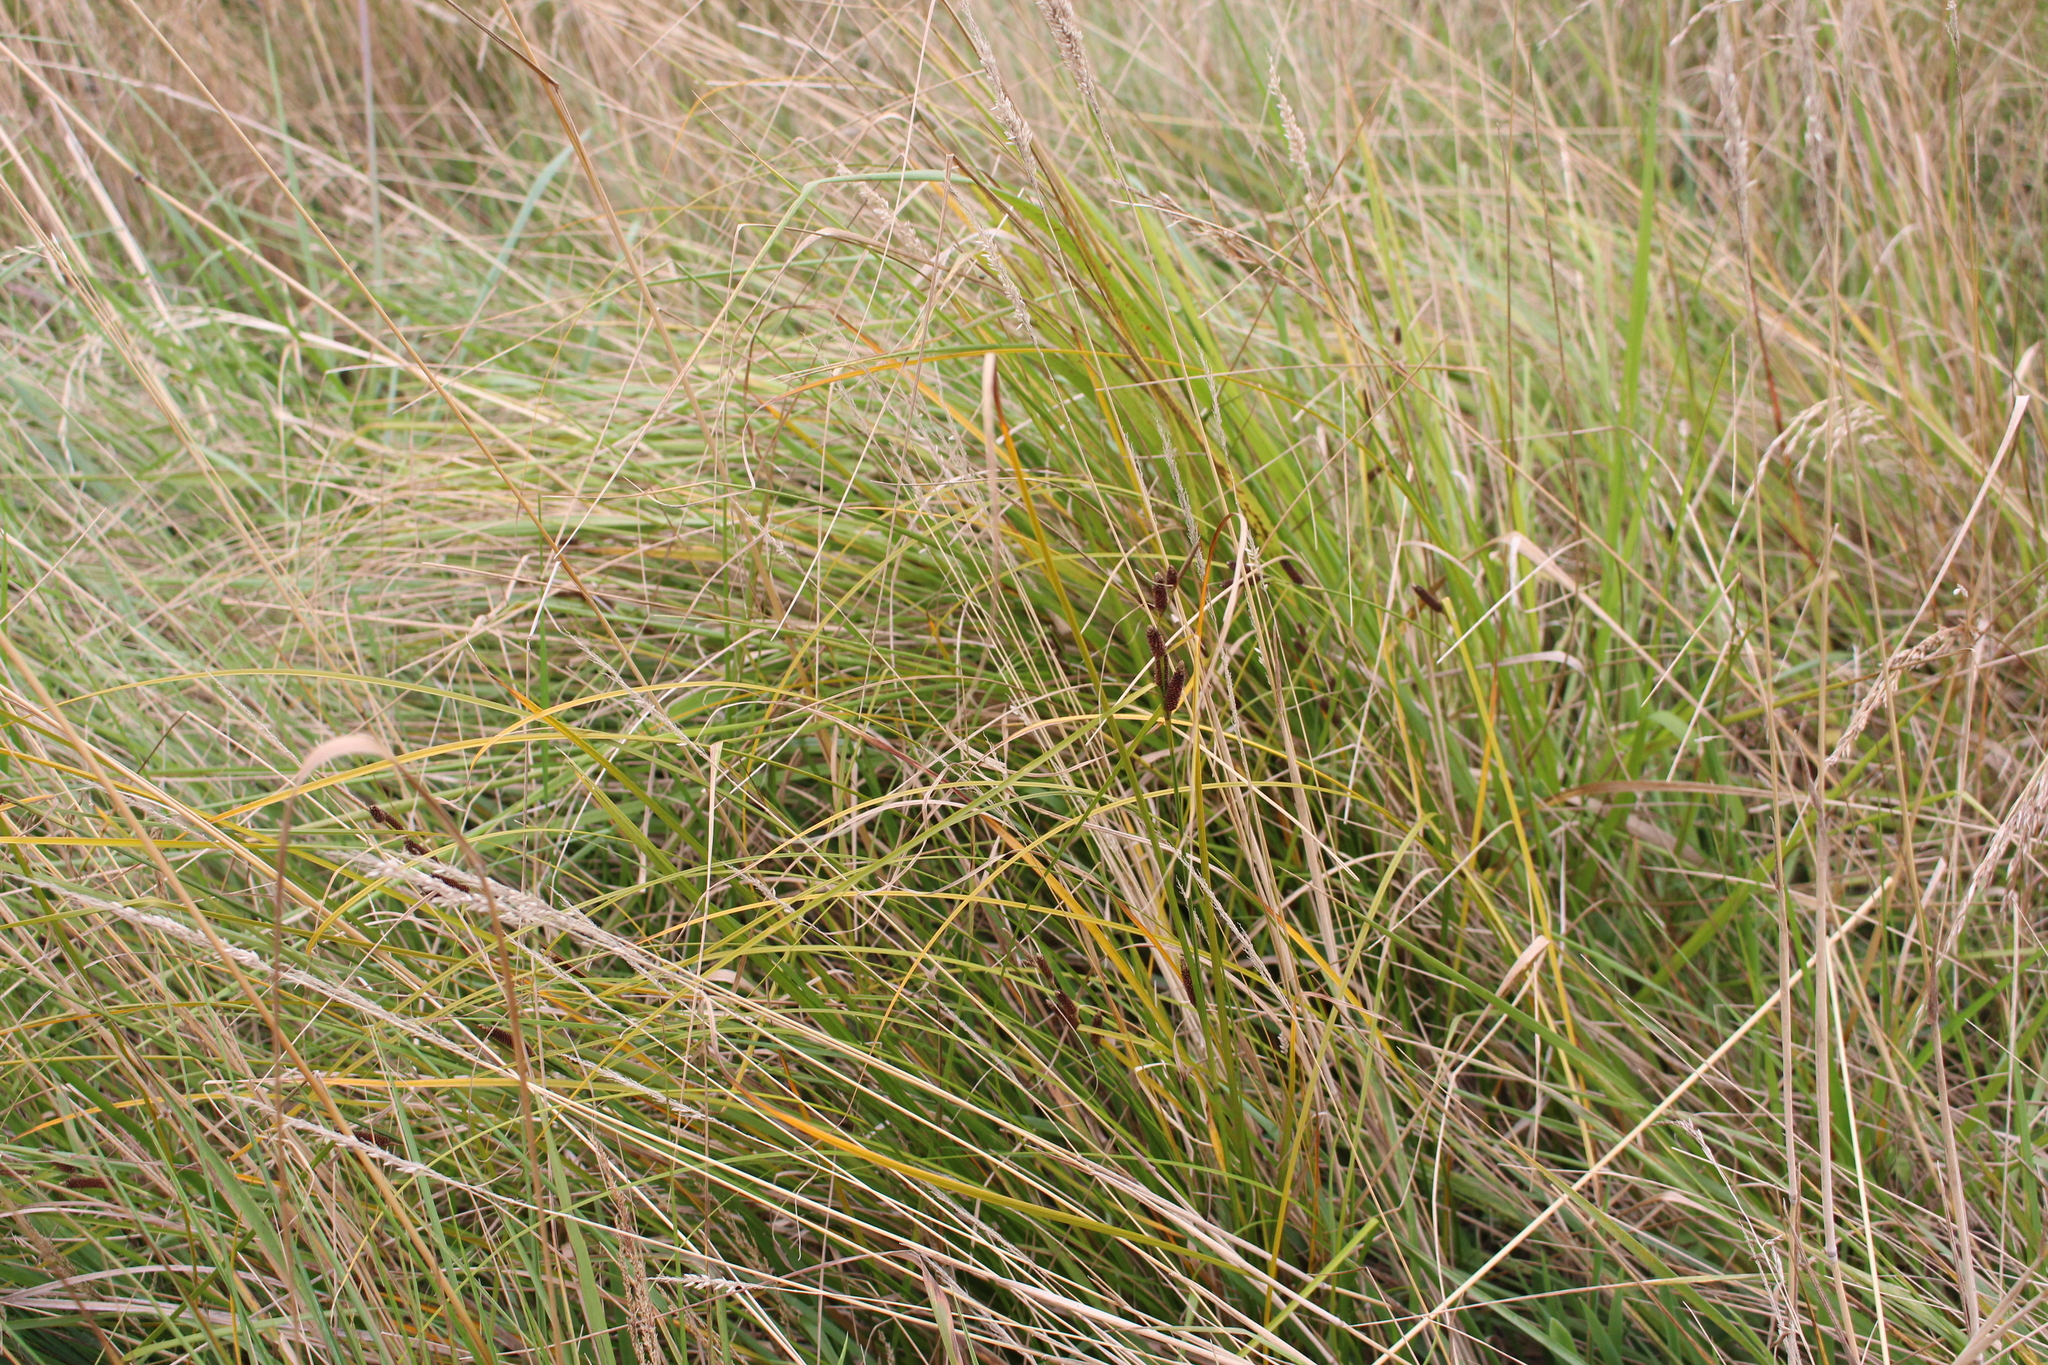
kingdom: Plantae
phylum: Tracheophyta
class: Liliopsida
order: Poales
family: Cyperaceae
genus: Carex
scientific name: Carex dipsacea
